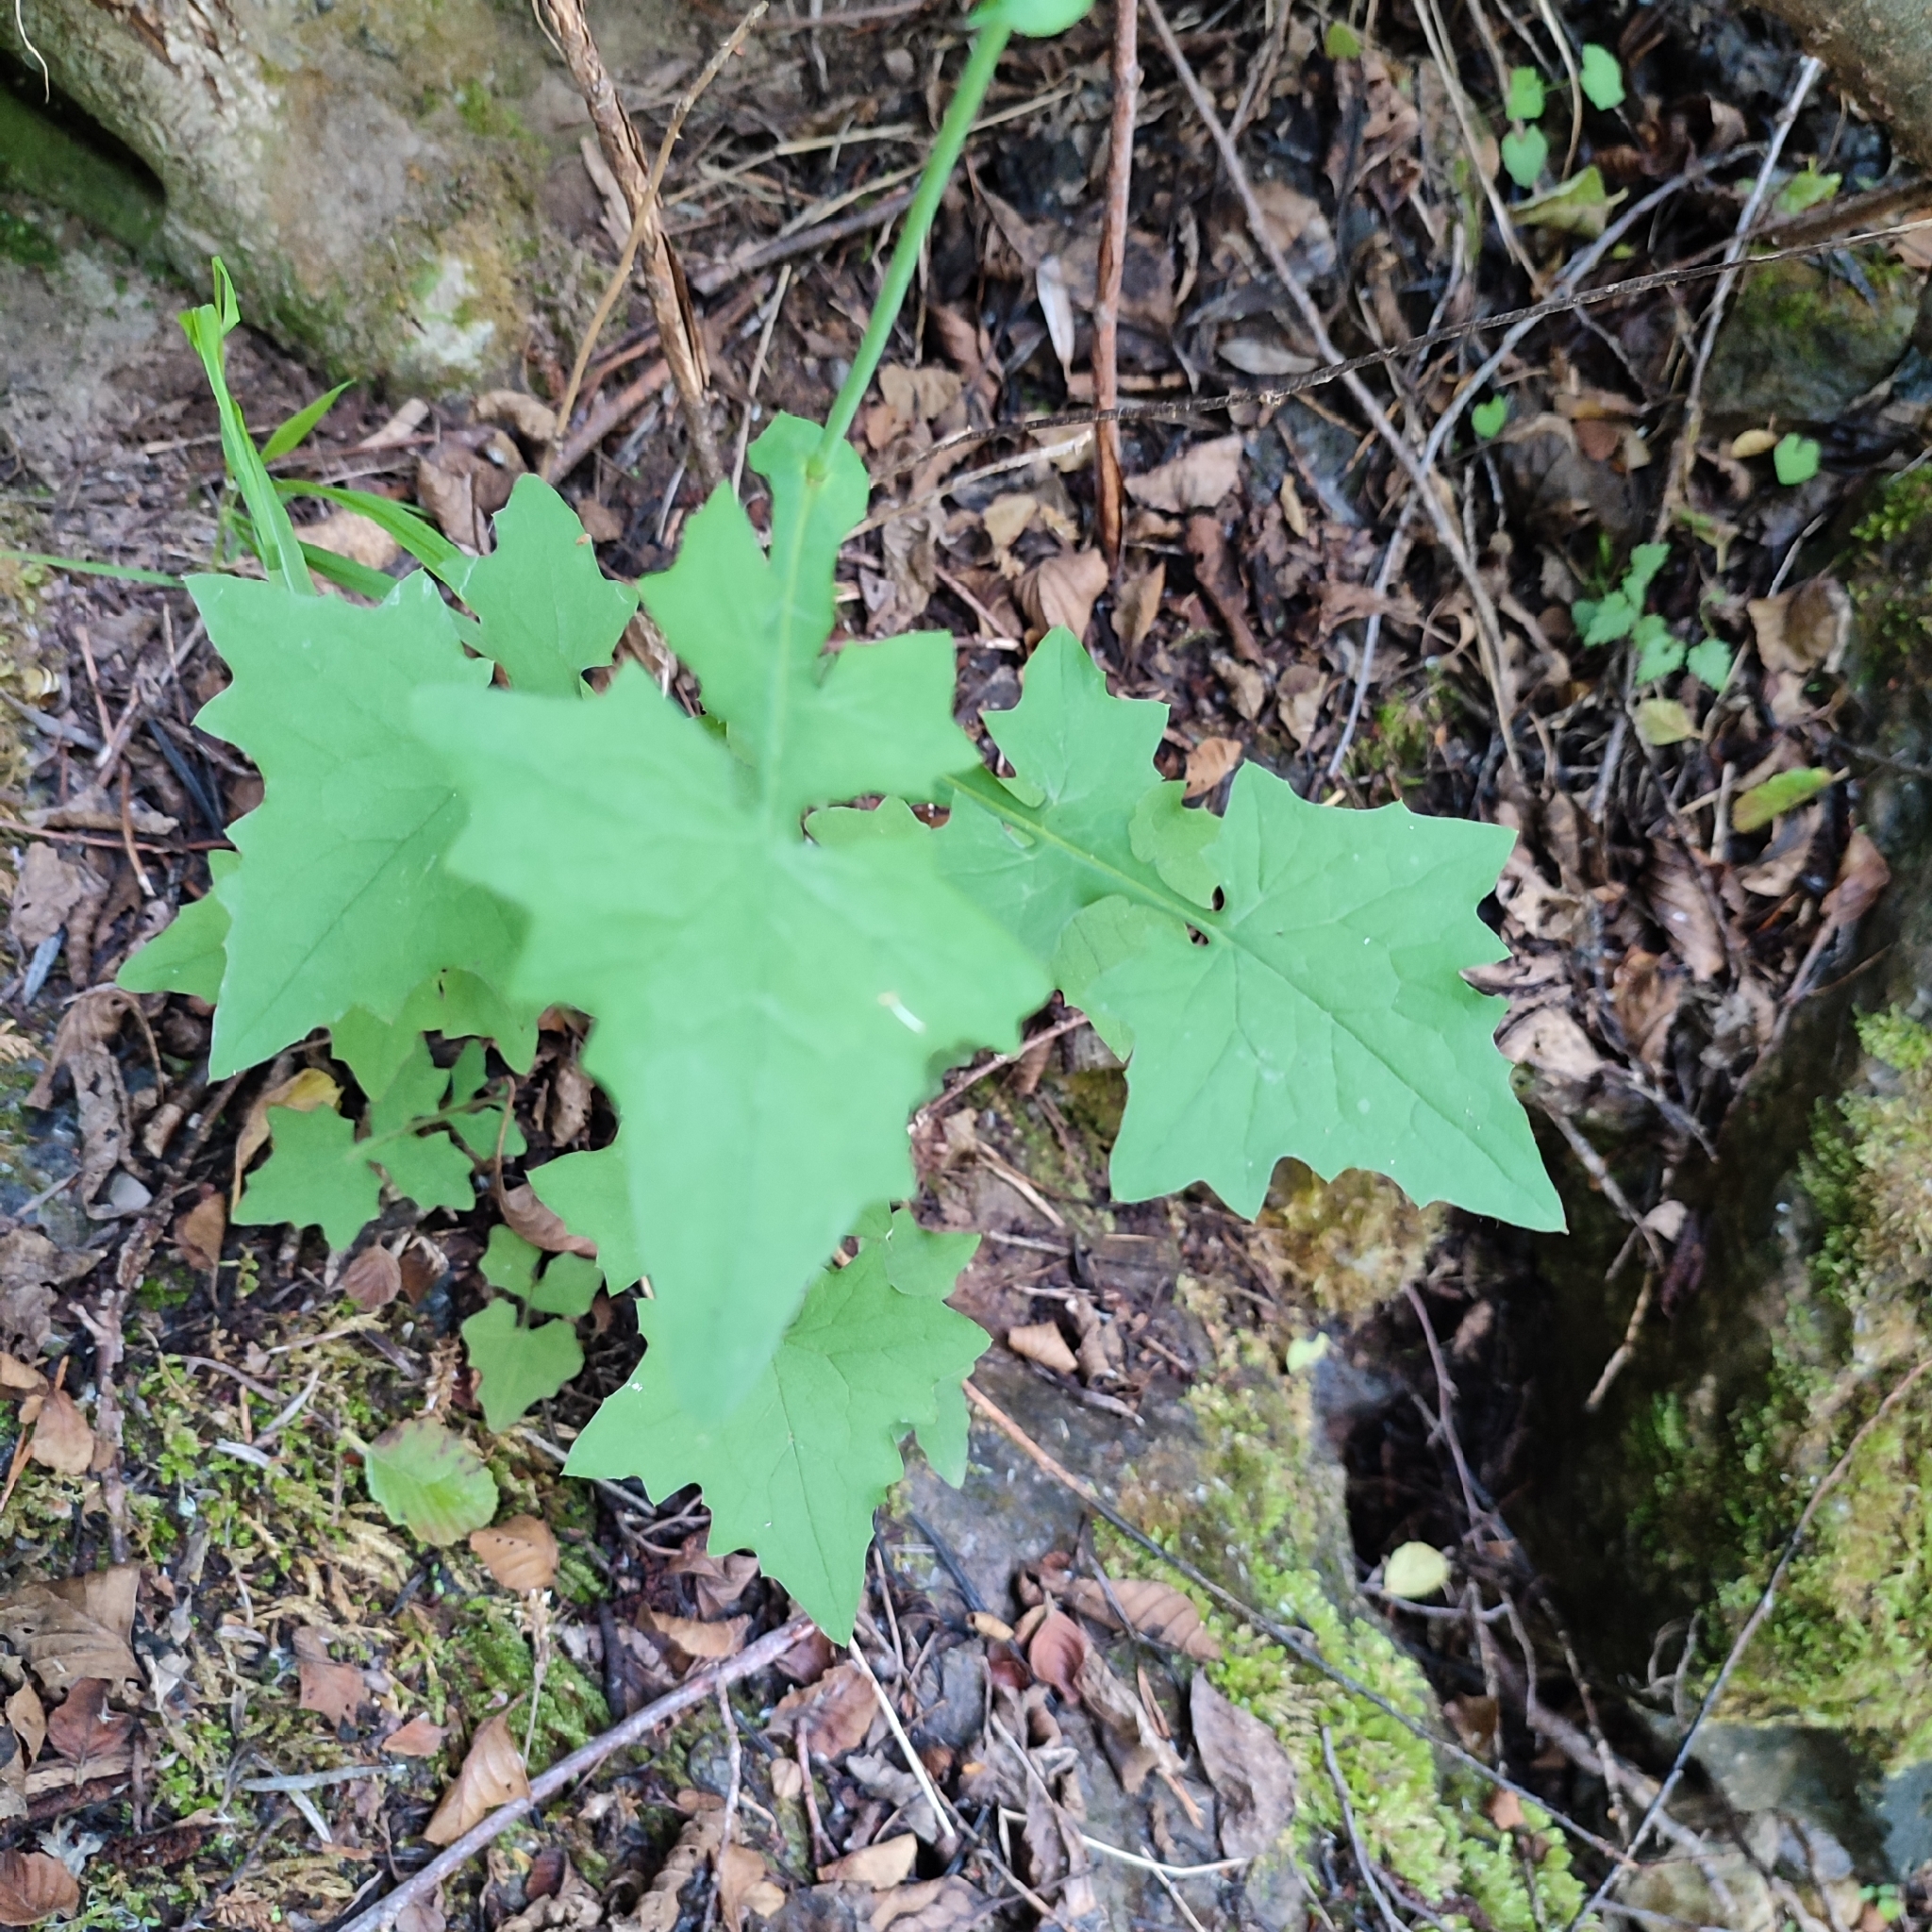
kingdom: Plantae
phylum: Tracheophyta
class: Magnoliopsida
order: Asterales
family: Asteraceae
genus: Mycelis
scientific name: Mycelis muralis
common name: Wall lettuce
